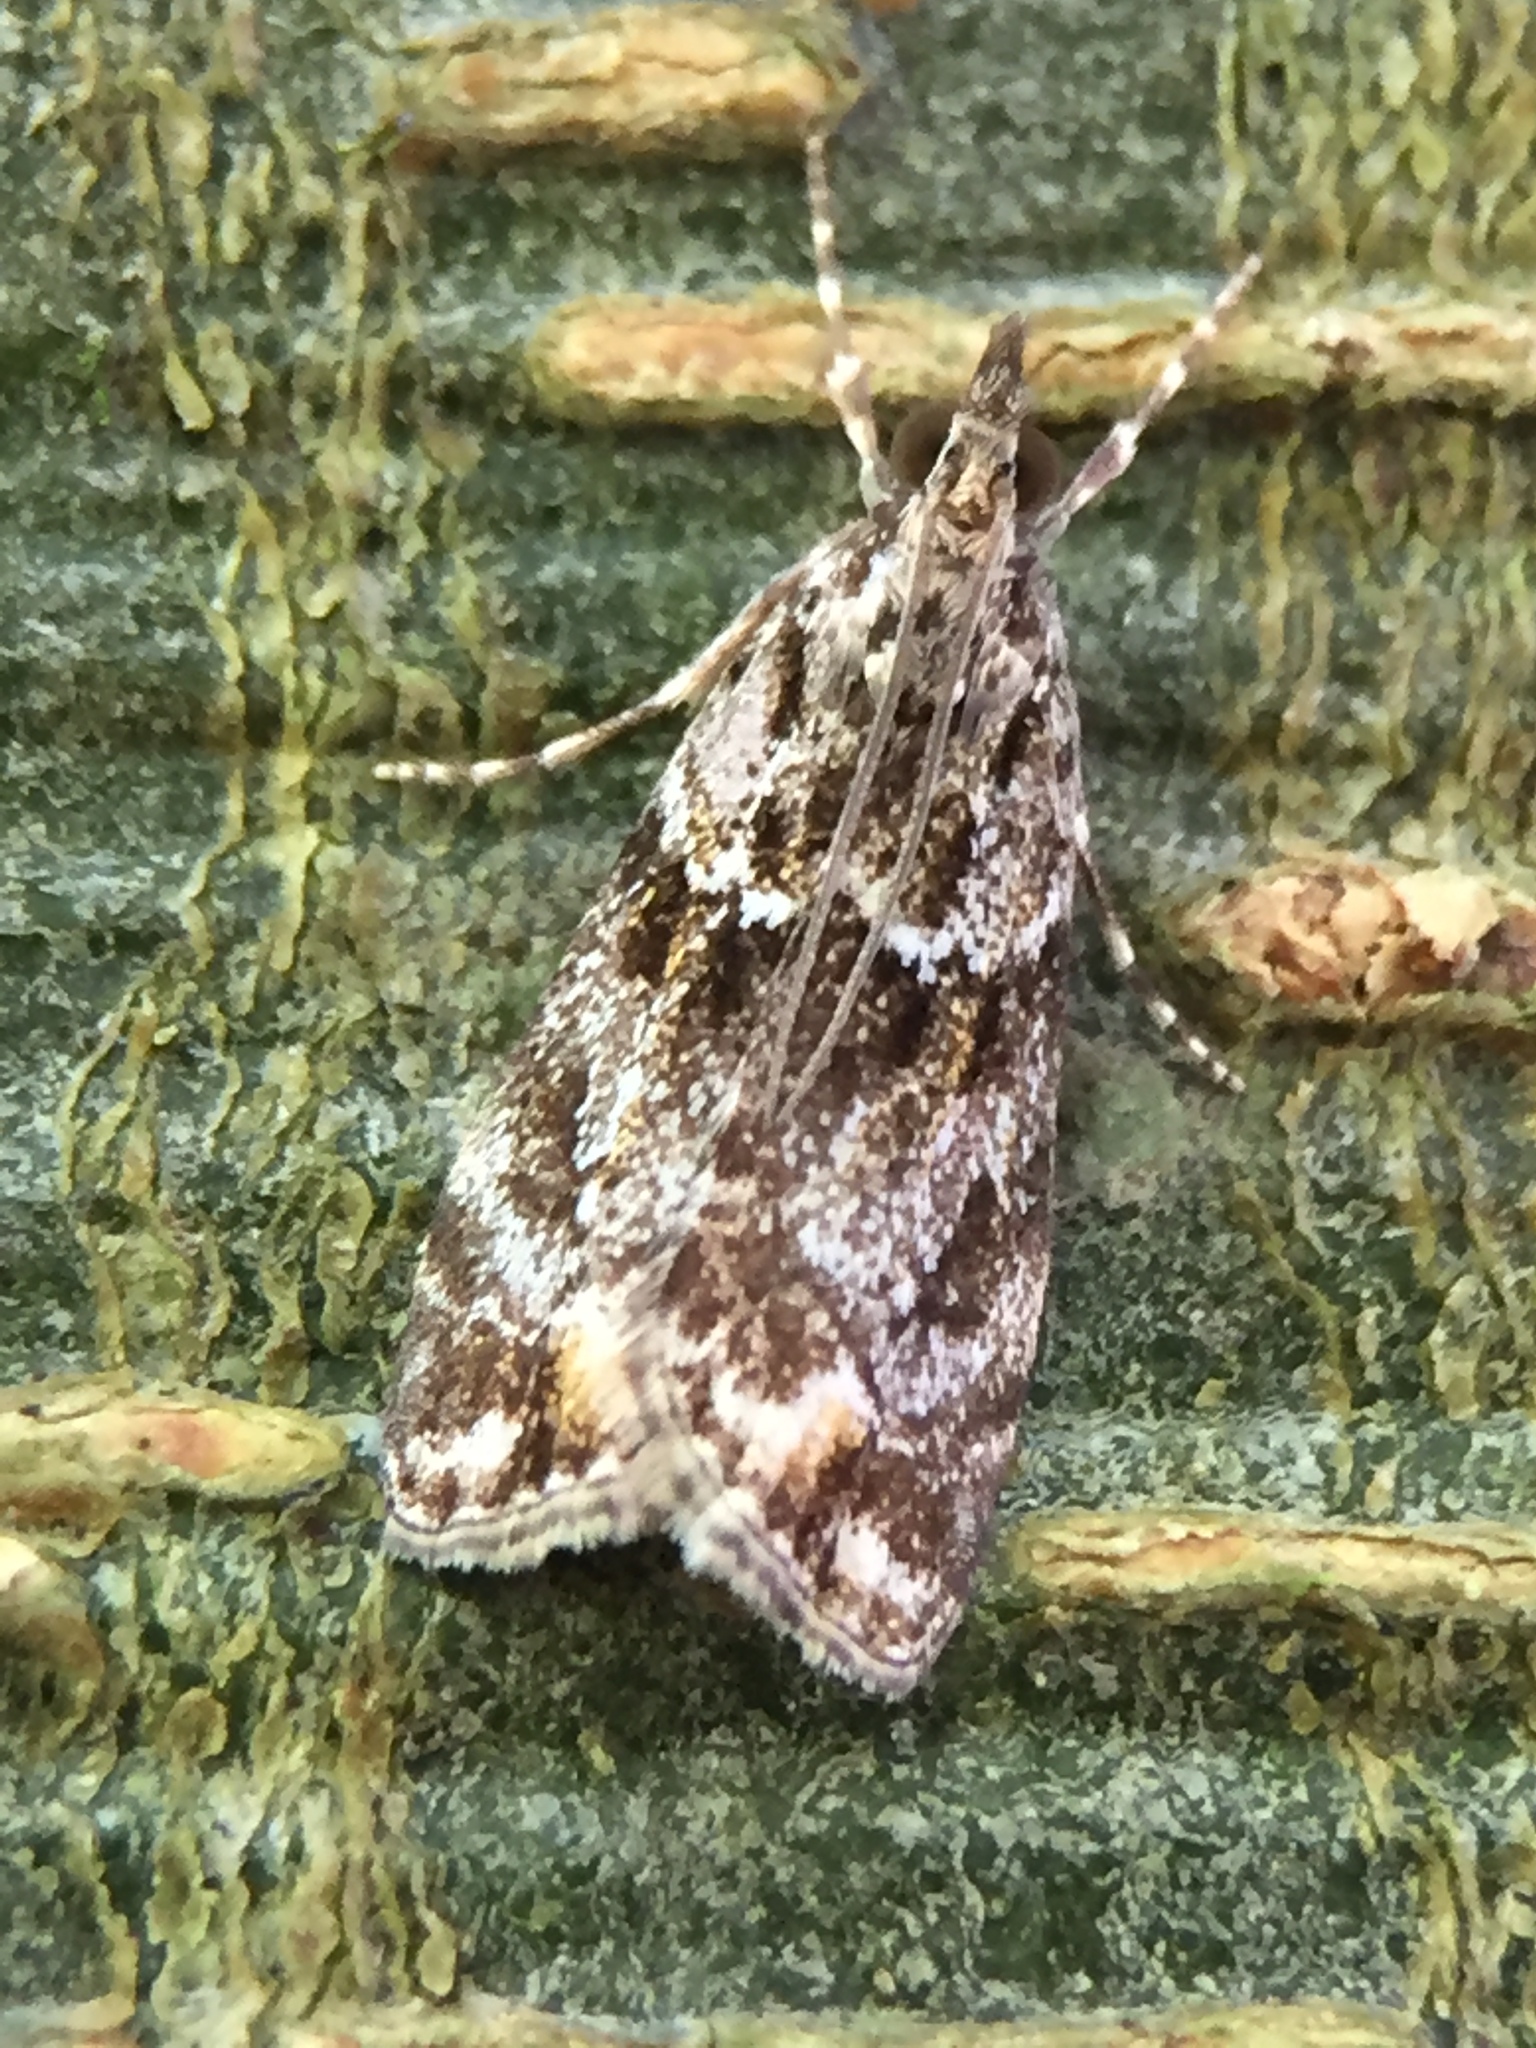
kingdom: Animalia
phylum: Arthropoda
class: Insecta
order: Lepidoptera
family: Crambidae
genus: Eudonia
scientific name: Eudonia minualis
